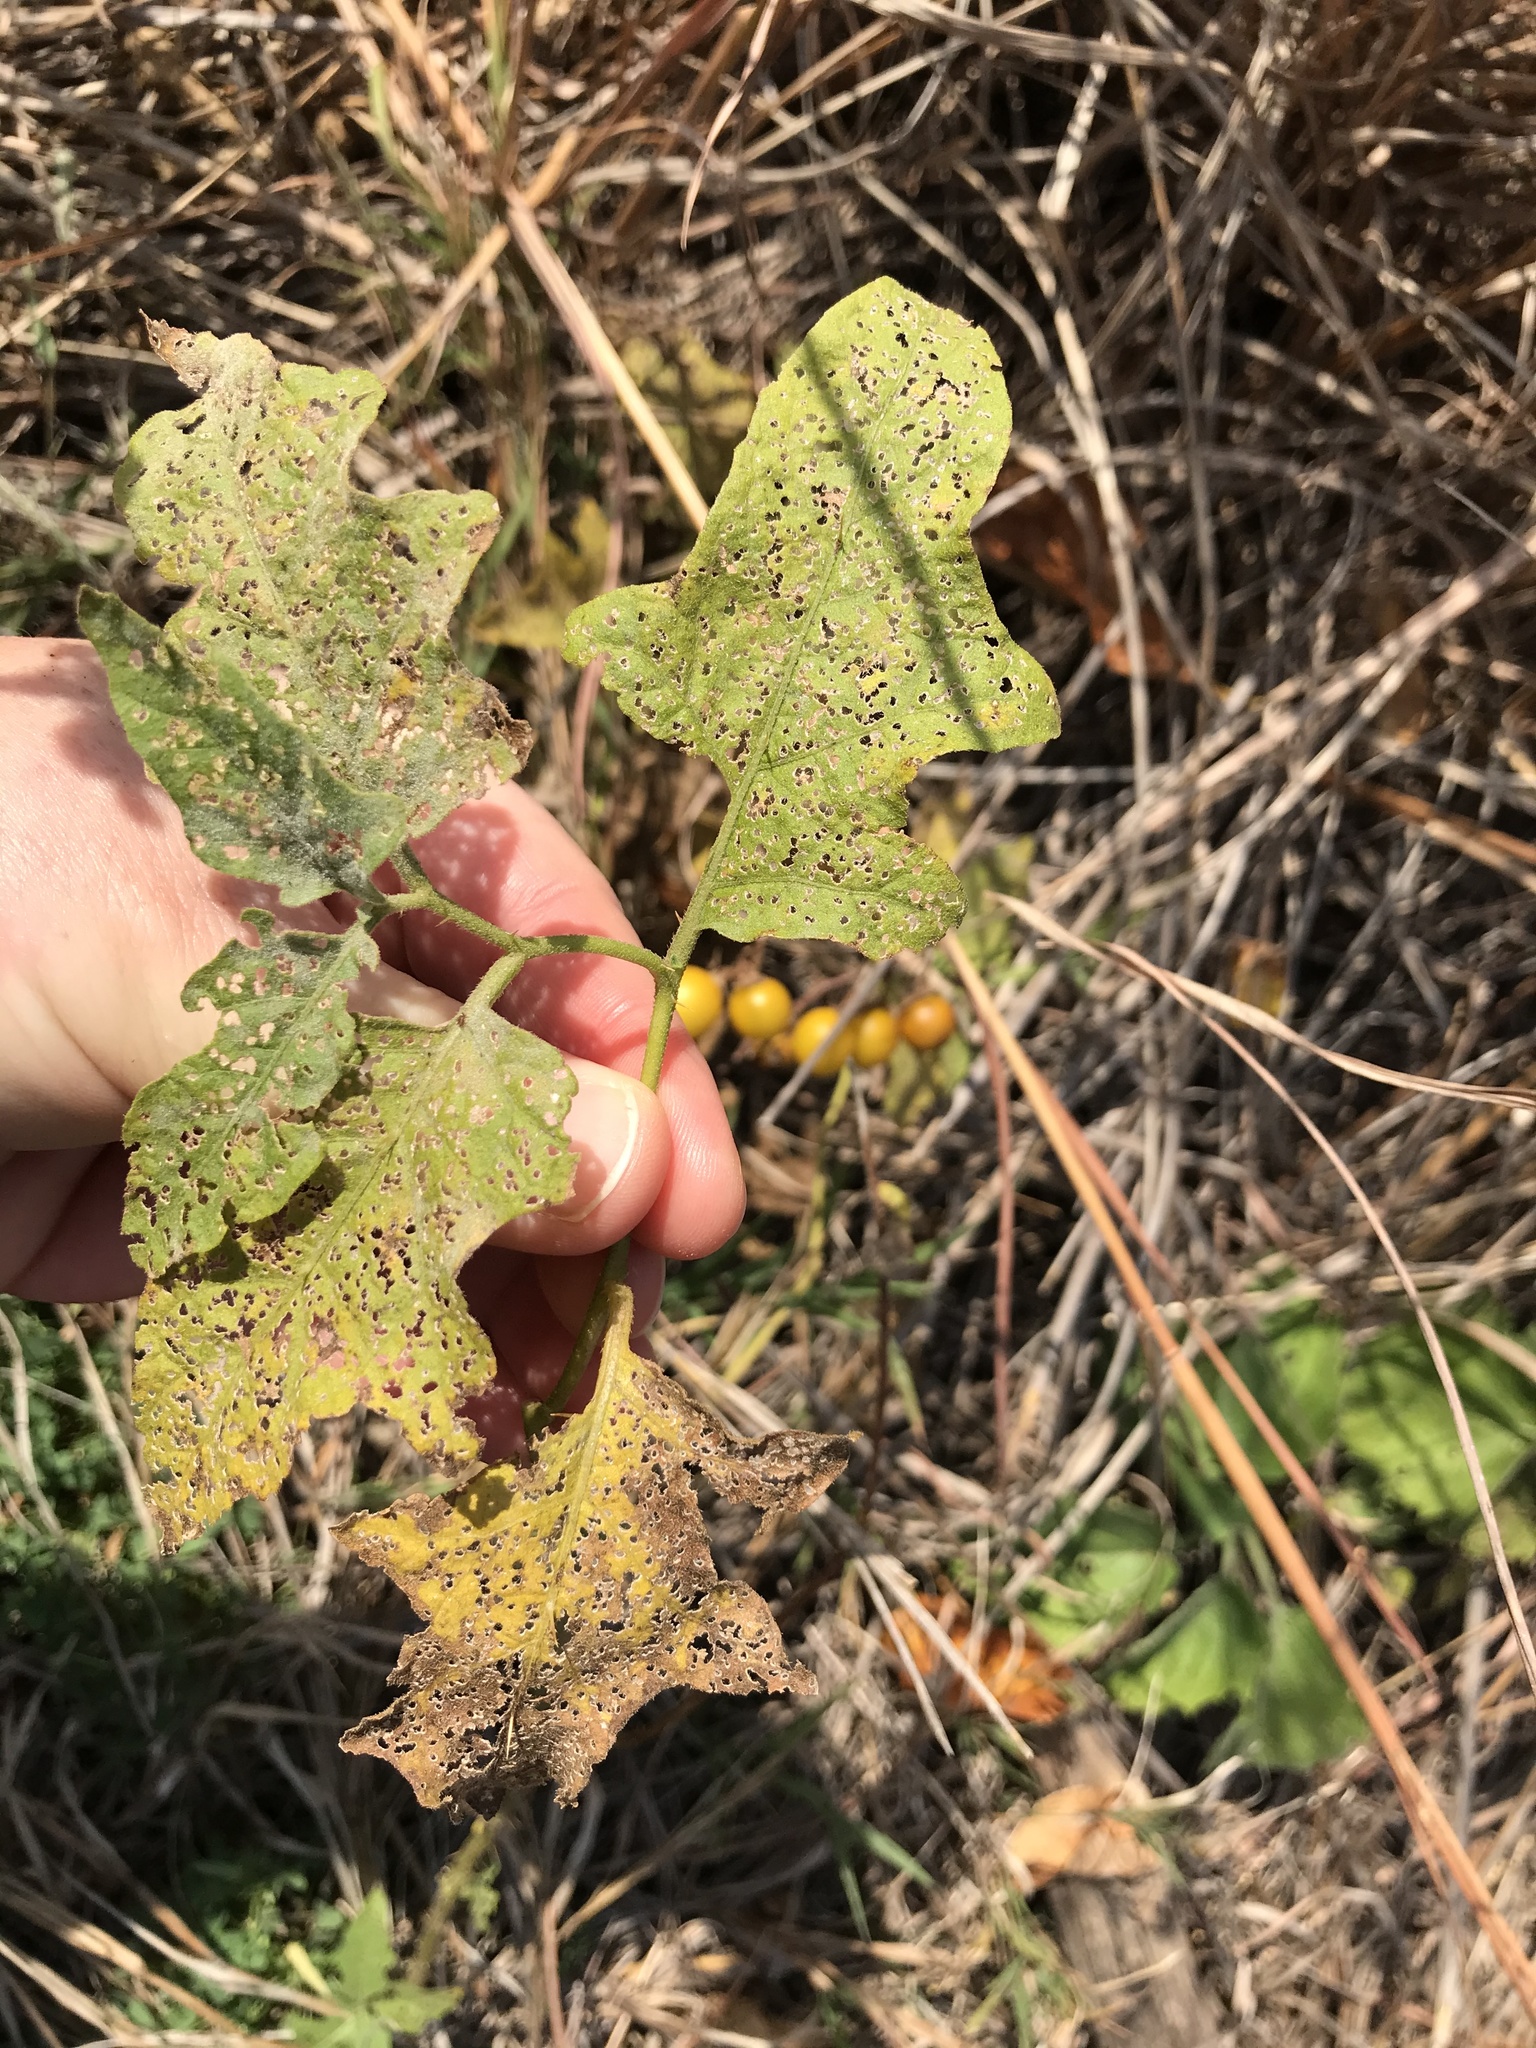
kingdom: Plantae
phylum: Tracheophyta
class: Magnoliopsida
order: Solanales
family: Solanaceae
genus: Solanum
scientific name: Solanum carolinense
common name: Horse-nettle
